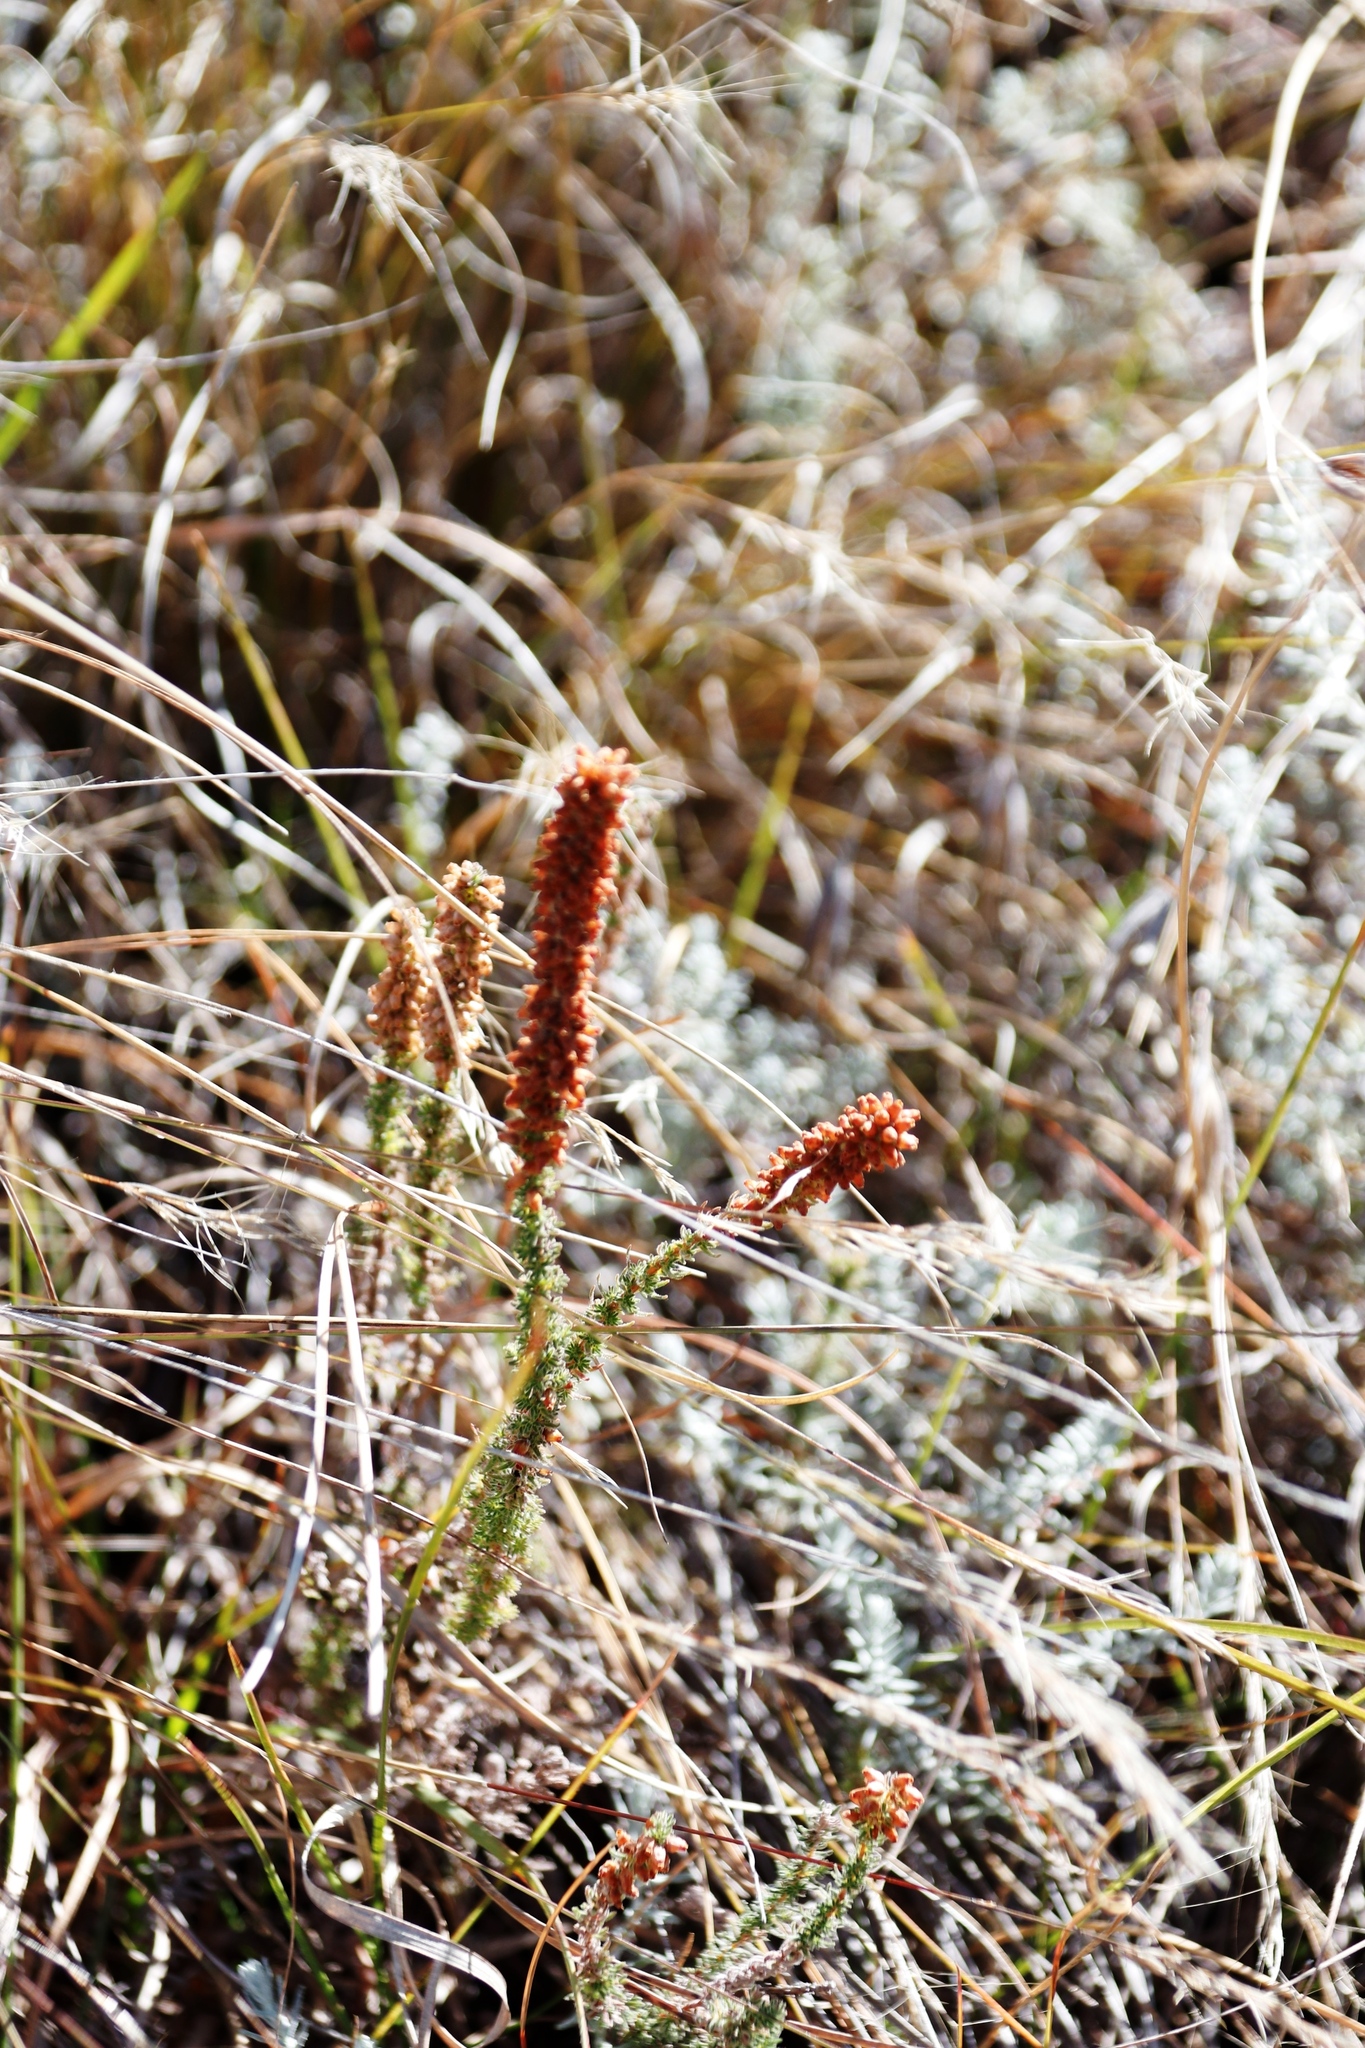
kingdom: Plantae
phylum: Tracheophyta
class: Magnoliopsida
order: Ericales
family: Ericaceae
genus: Erica
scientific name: Erica alopecurus
